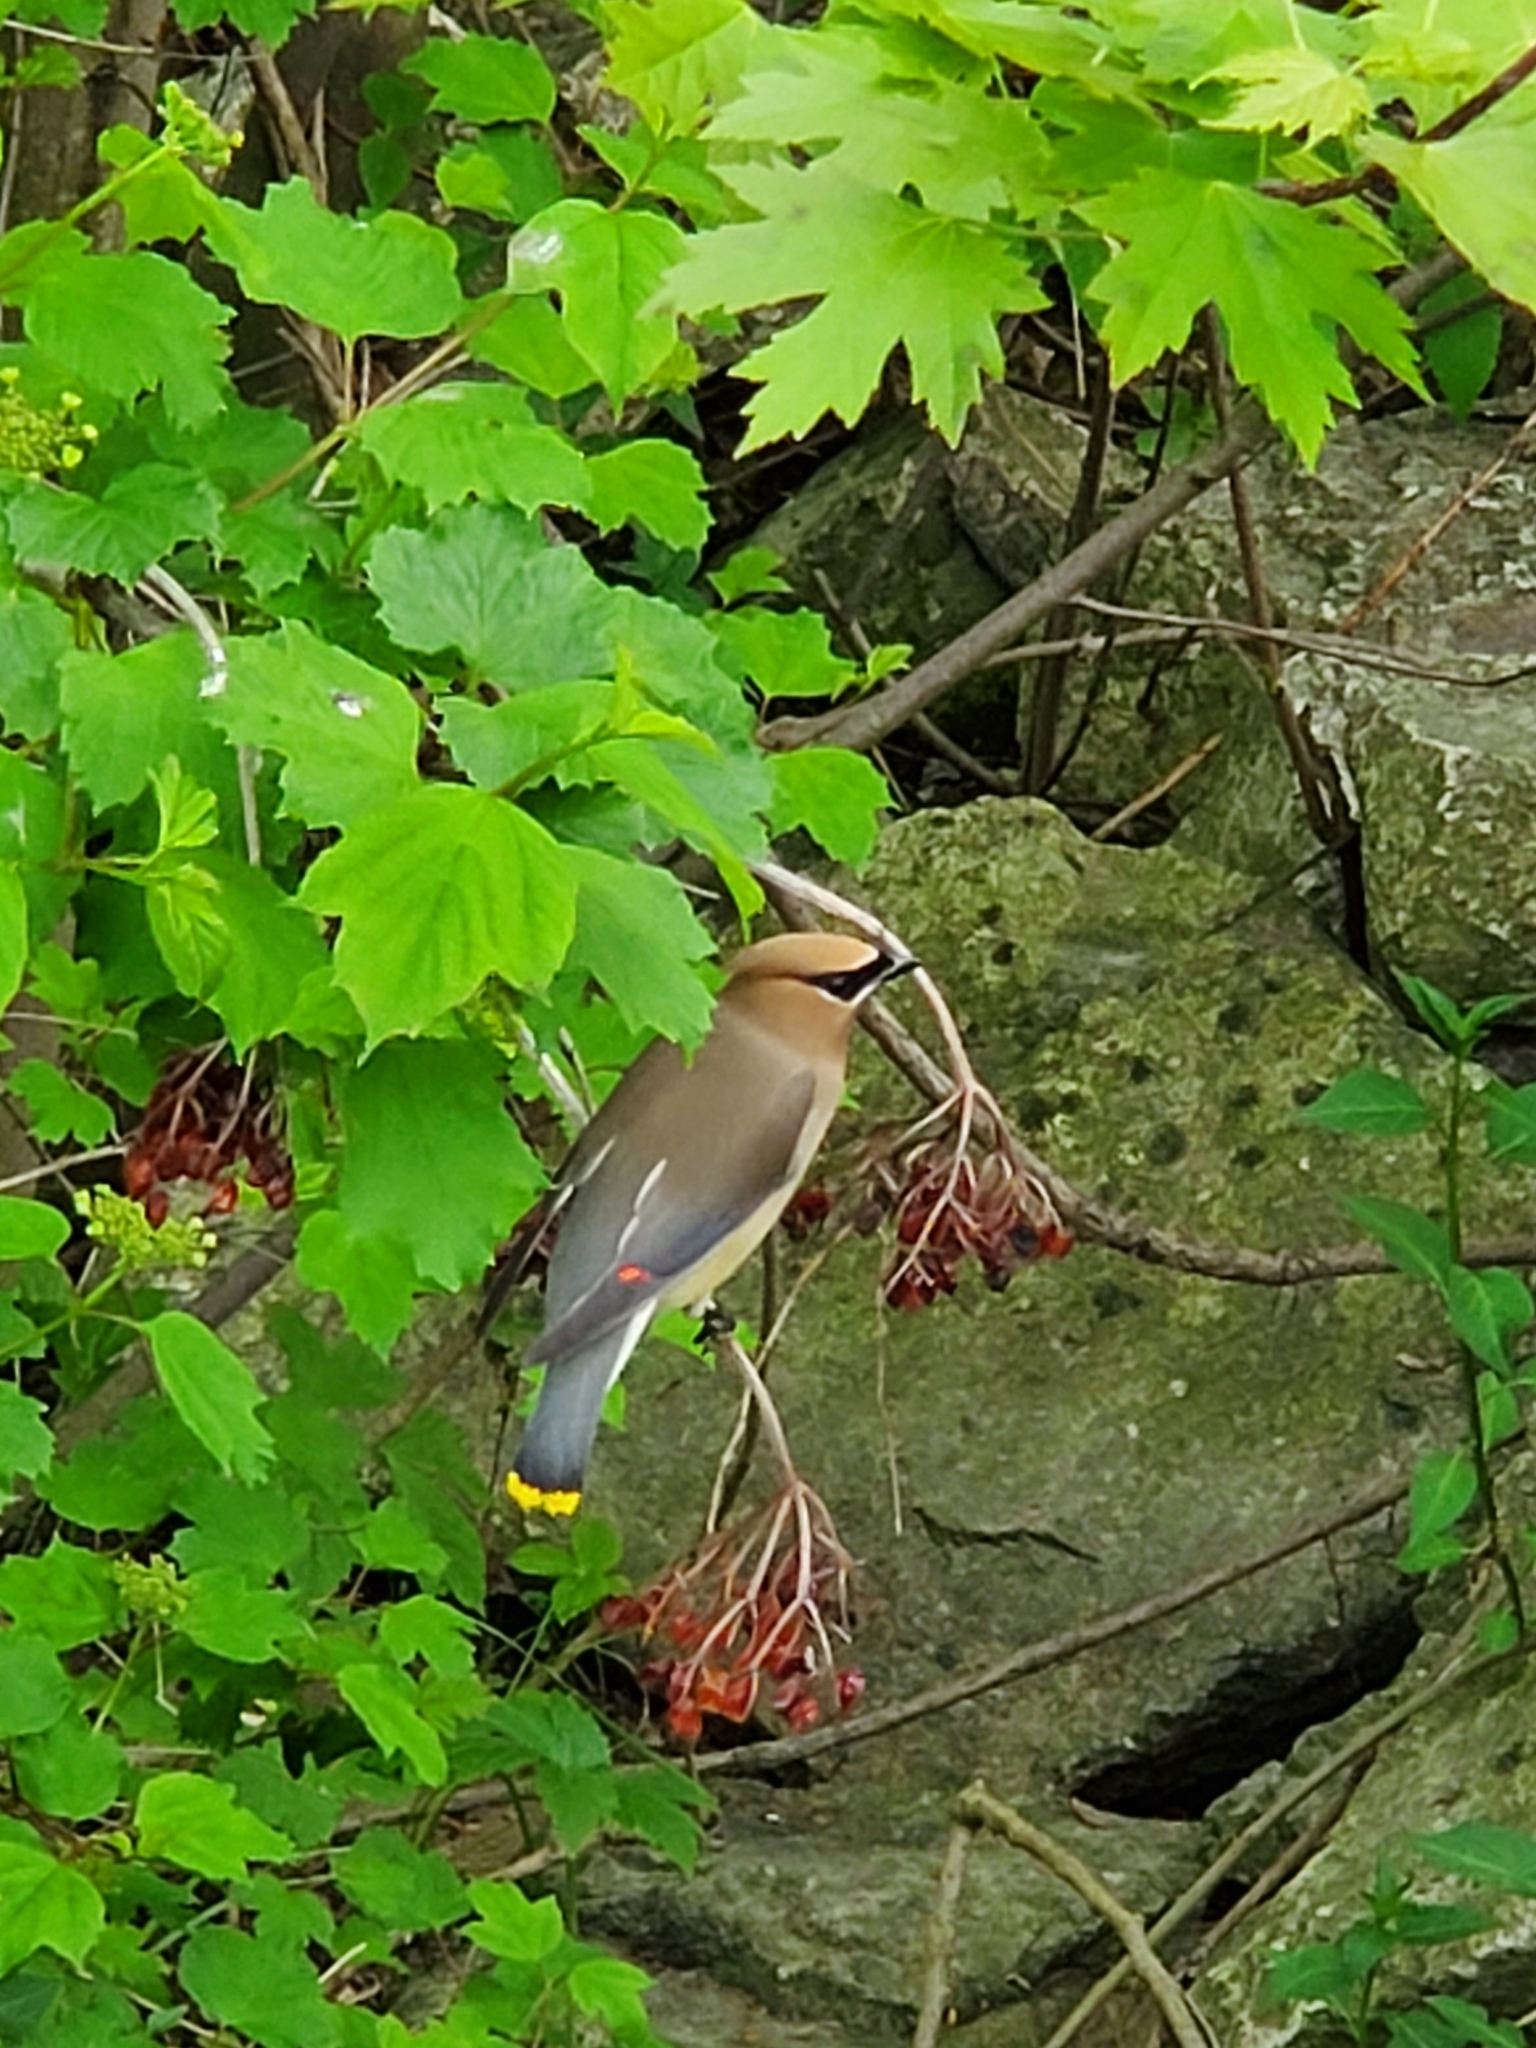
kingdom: Animalia
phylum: Chordata
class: Aves
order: Passeriformes
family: Bombycillidae
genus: Bombycilla
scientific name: Bombycilla cedrorum
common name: Cedar waxwing
